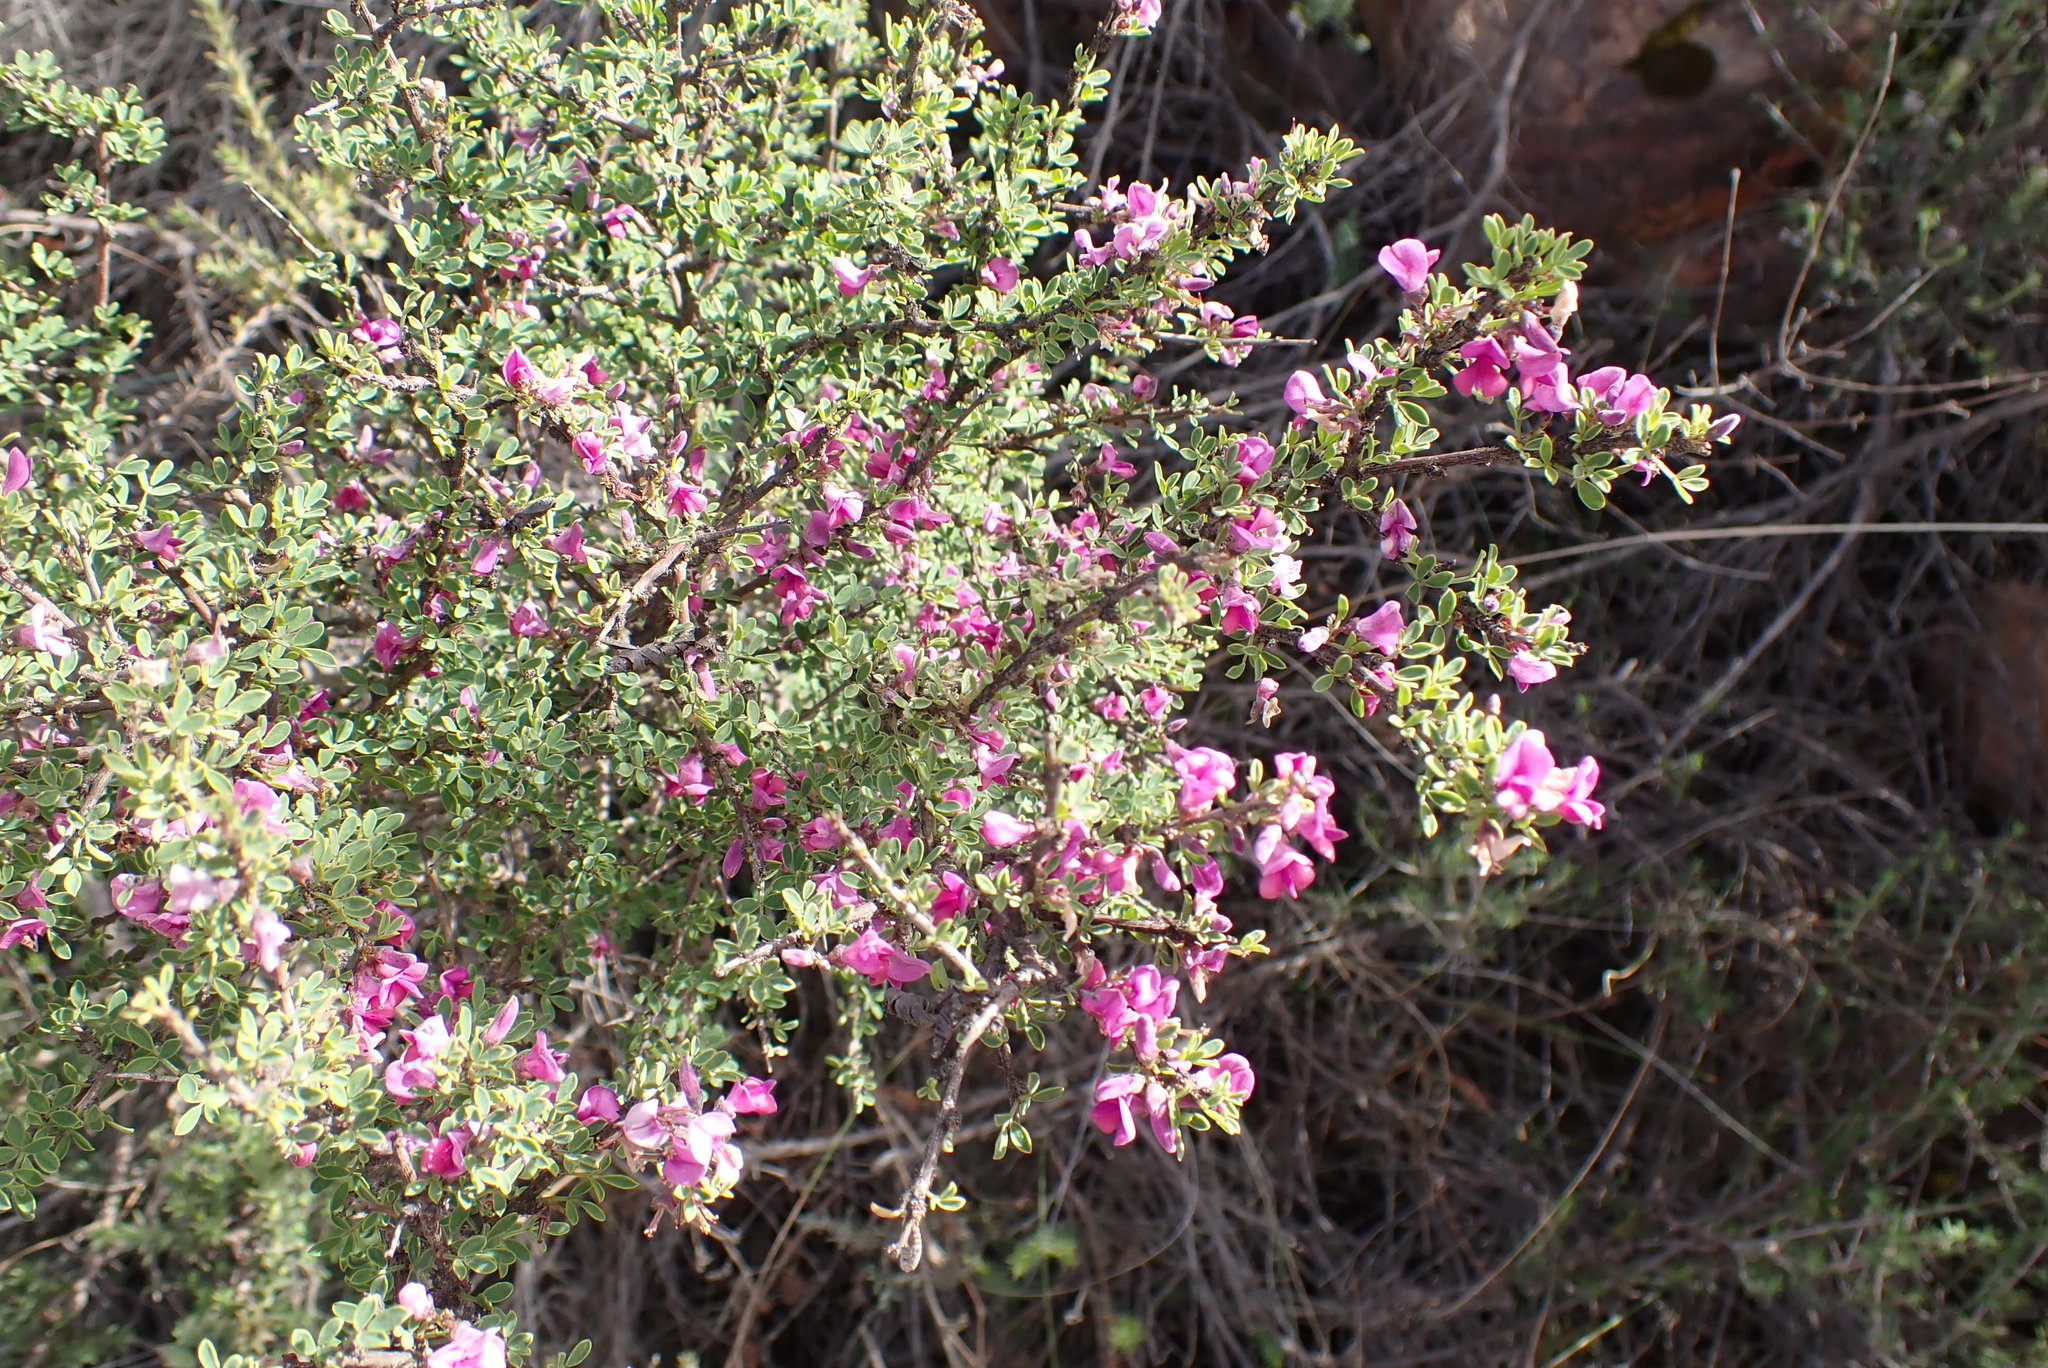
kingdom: Plantae
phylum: Tracheophyta
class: Magnoliopsida
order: Fabales
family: Fabaceae
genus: Indigofera
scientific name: Indigofera nigromontana
